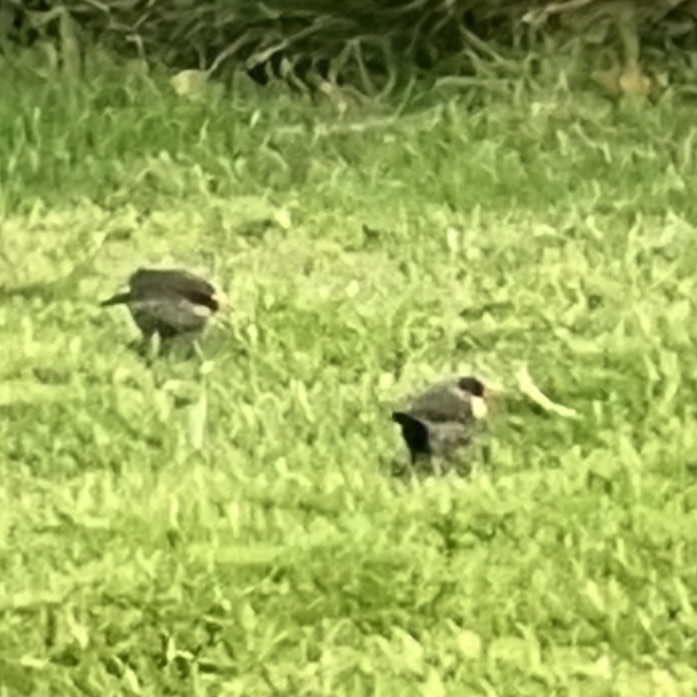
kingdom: Animalia
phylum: Chordata
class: Aves
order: Passeriformes
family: Estrildidae
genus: Estrilda
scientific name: Estrilda astrild
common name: Common waxbill
